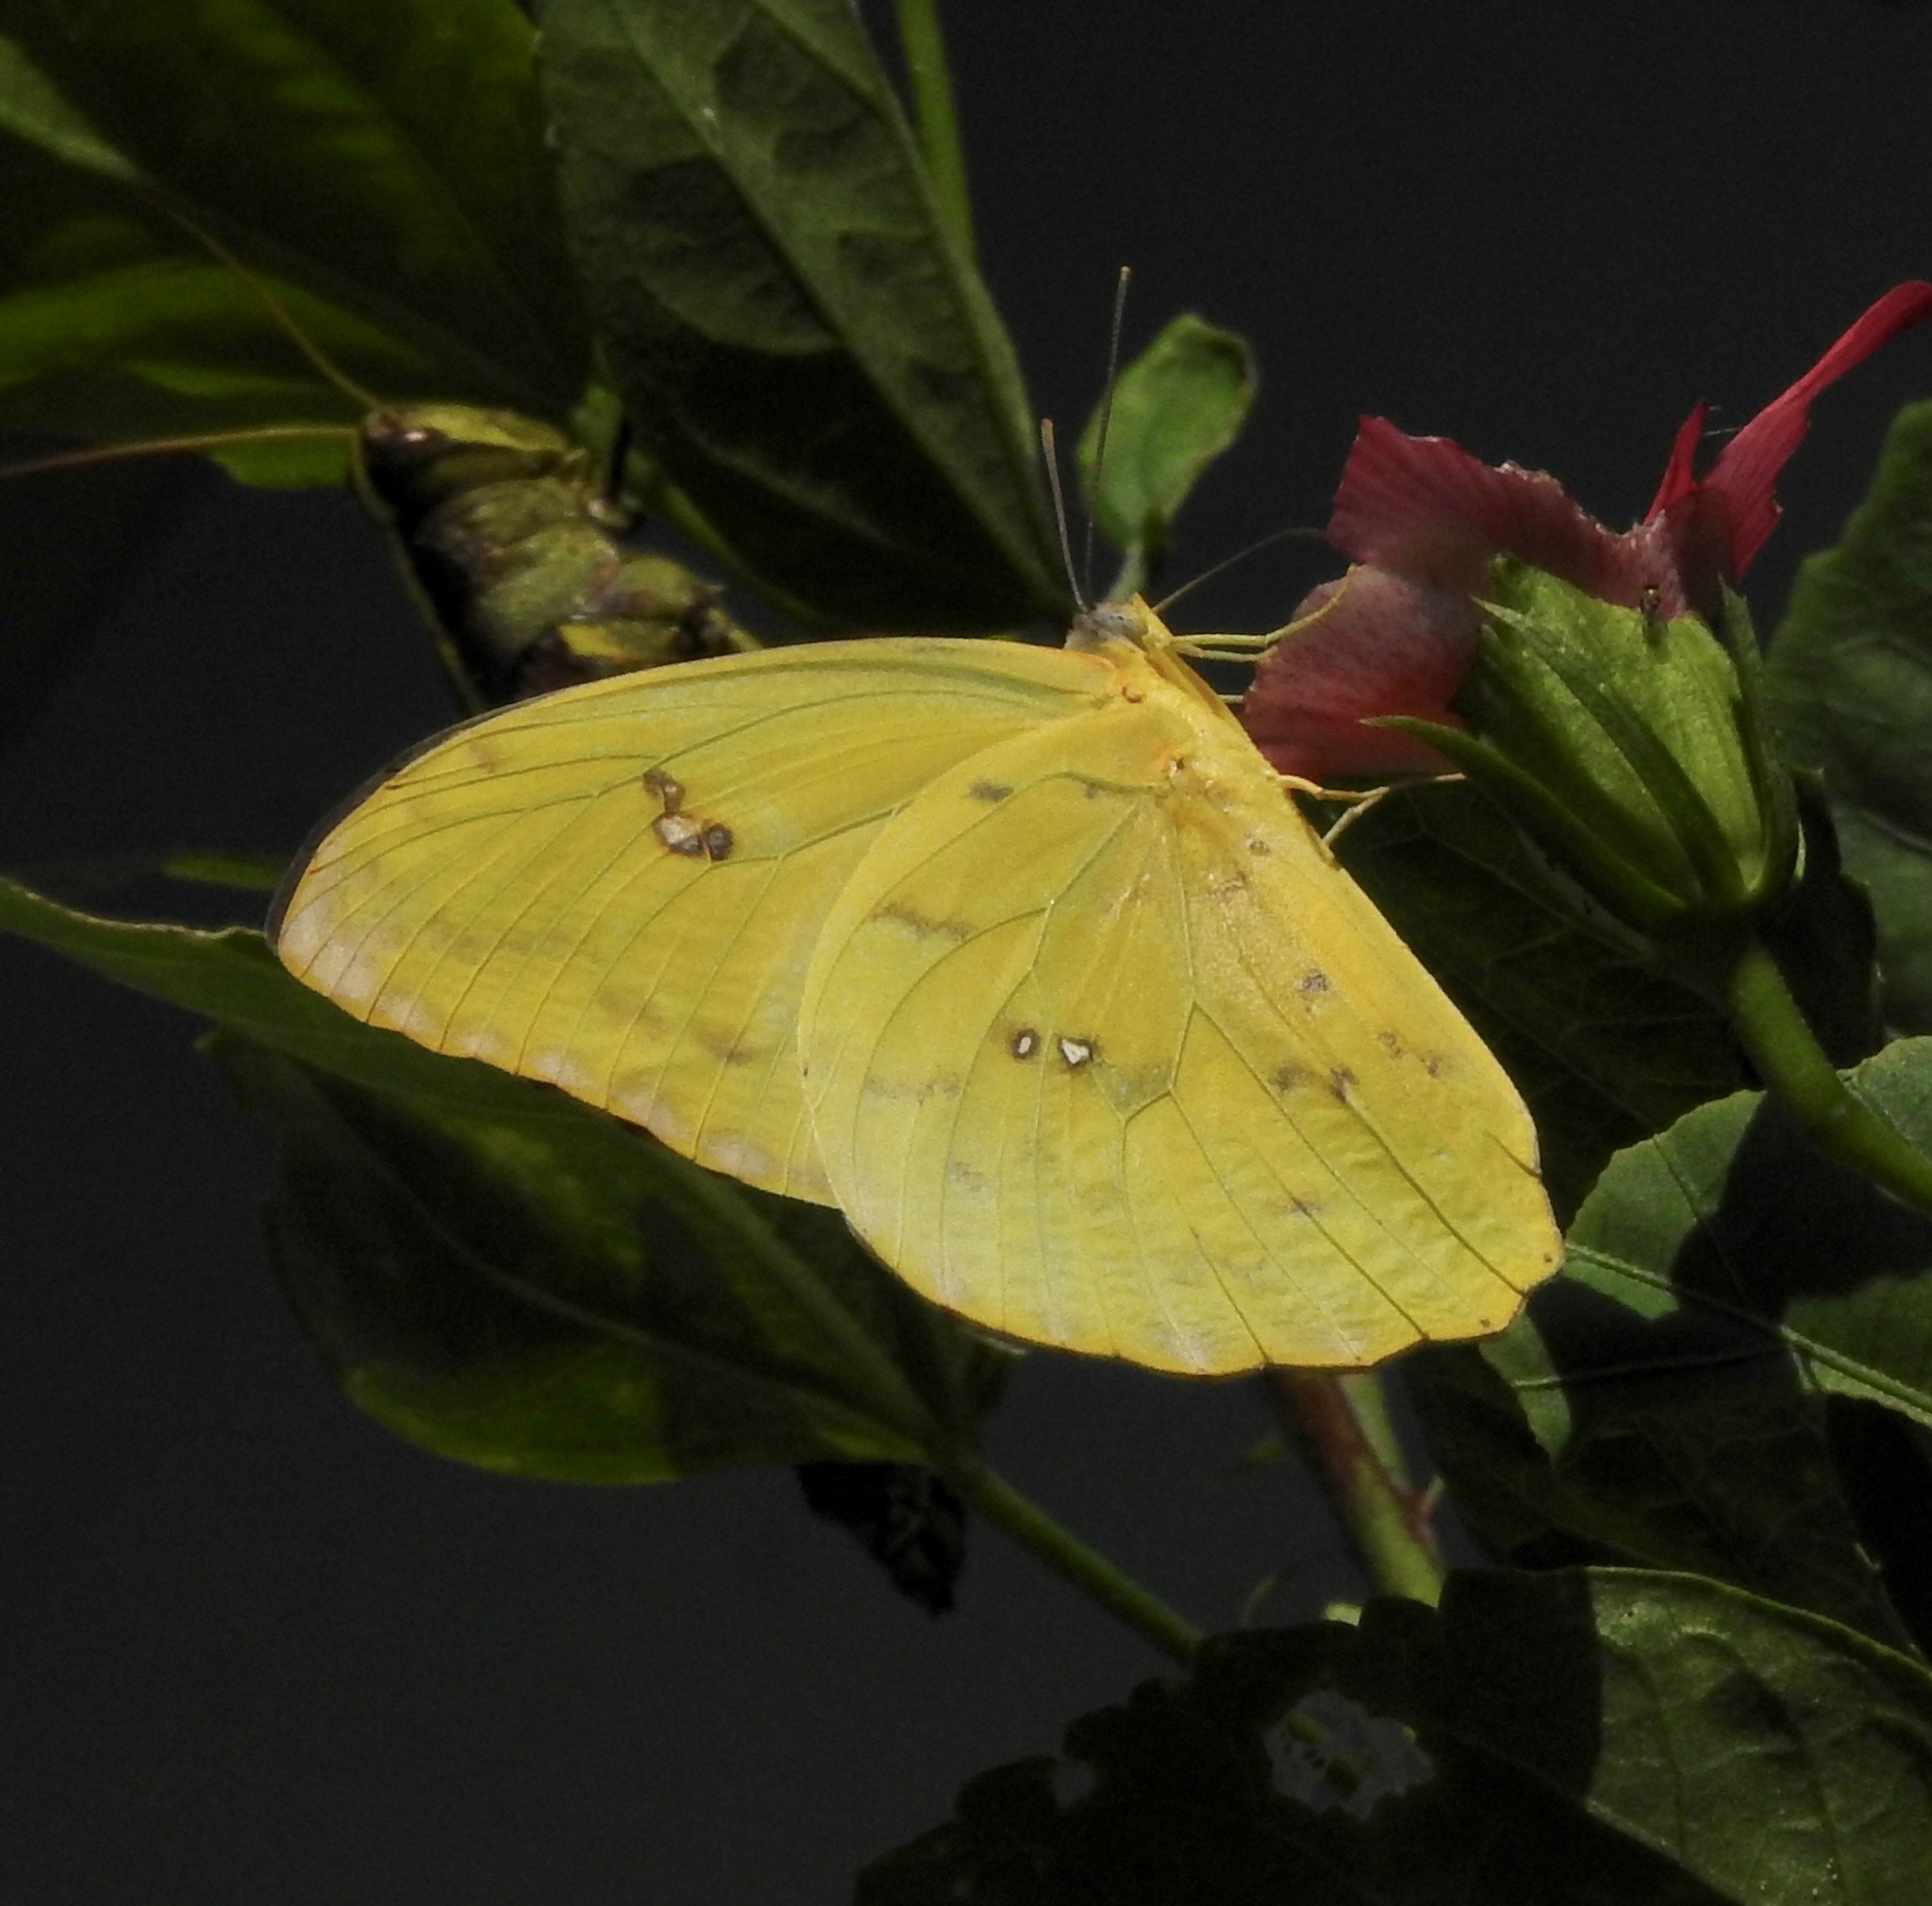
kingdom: Animalia
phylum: Arthropoda
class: Insecta
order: Lepidoptera
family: Pieridae
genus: Phoebis
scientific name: Phoebis sennae
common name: Cloudless sulphur
